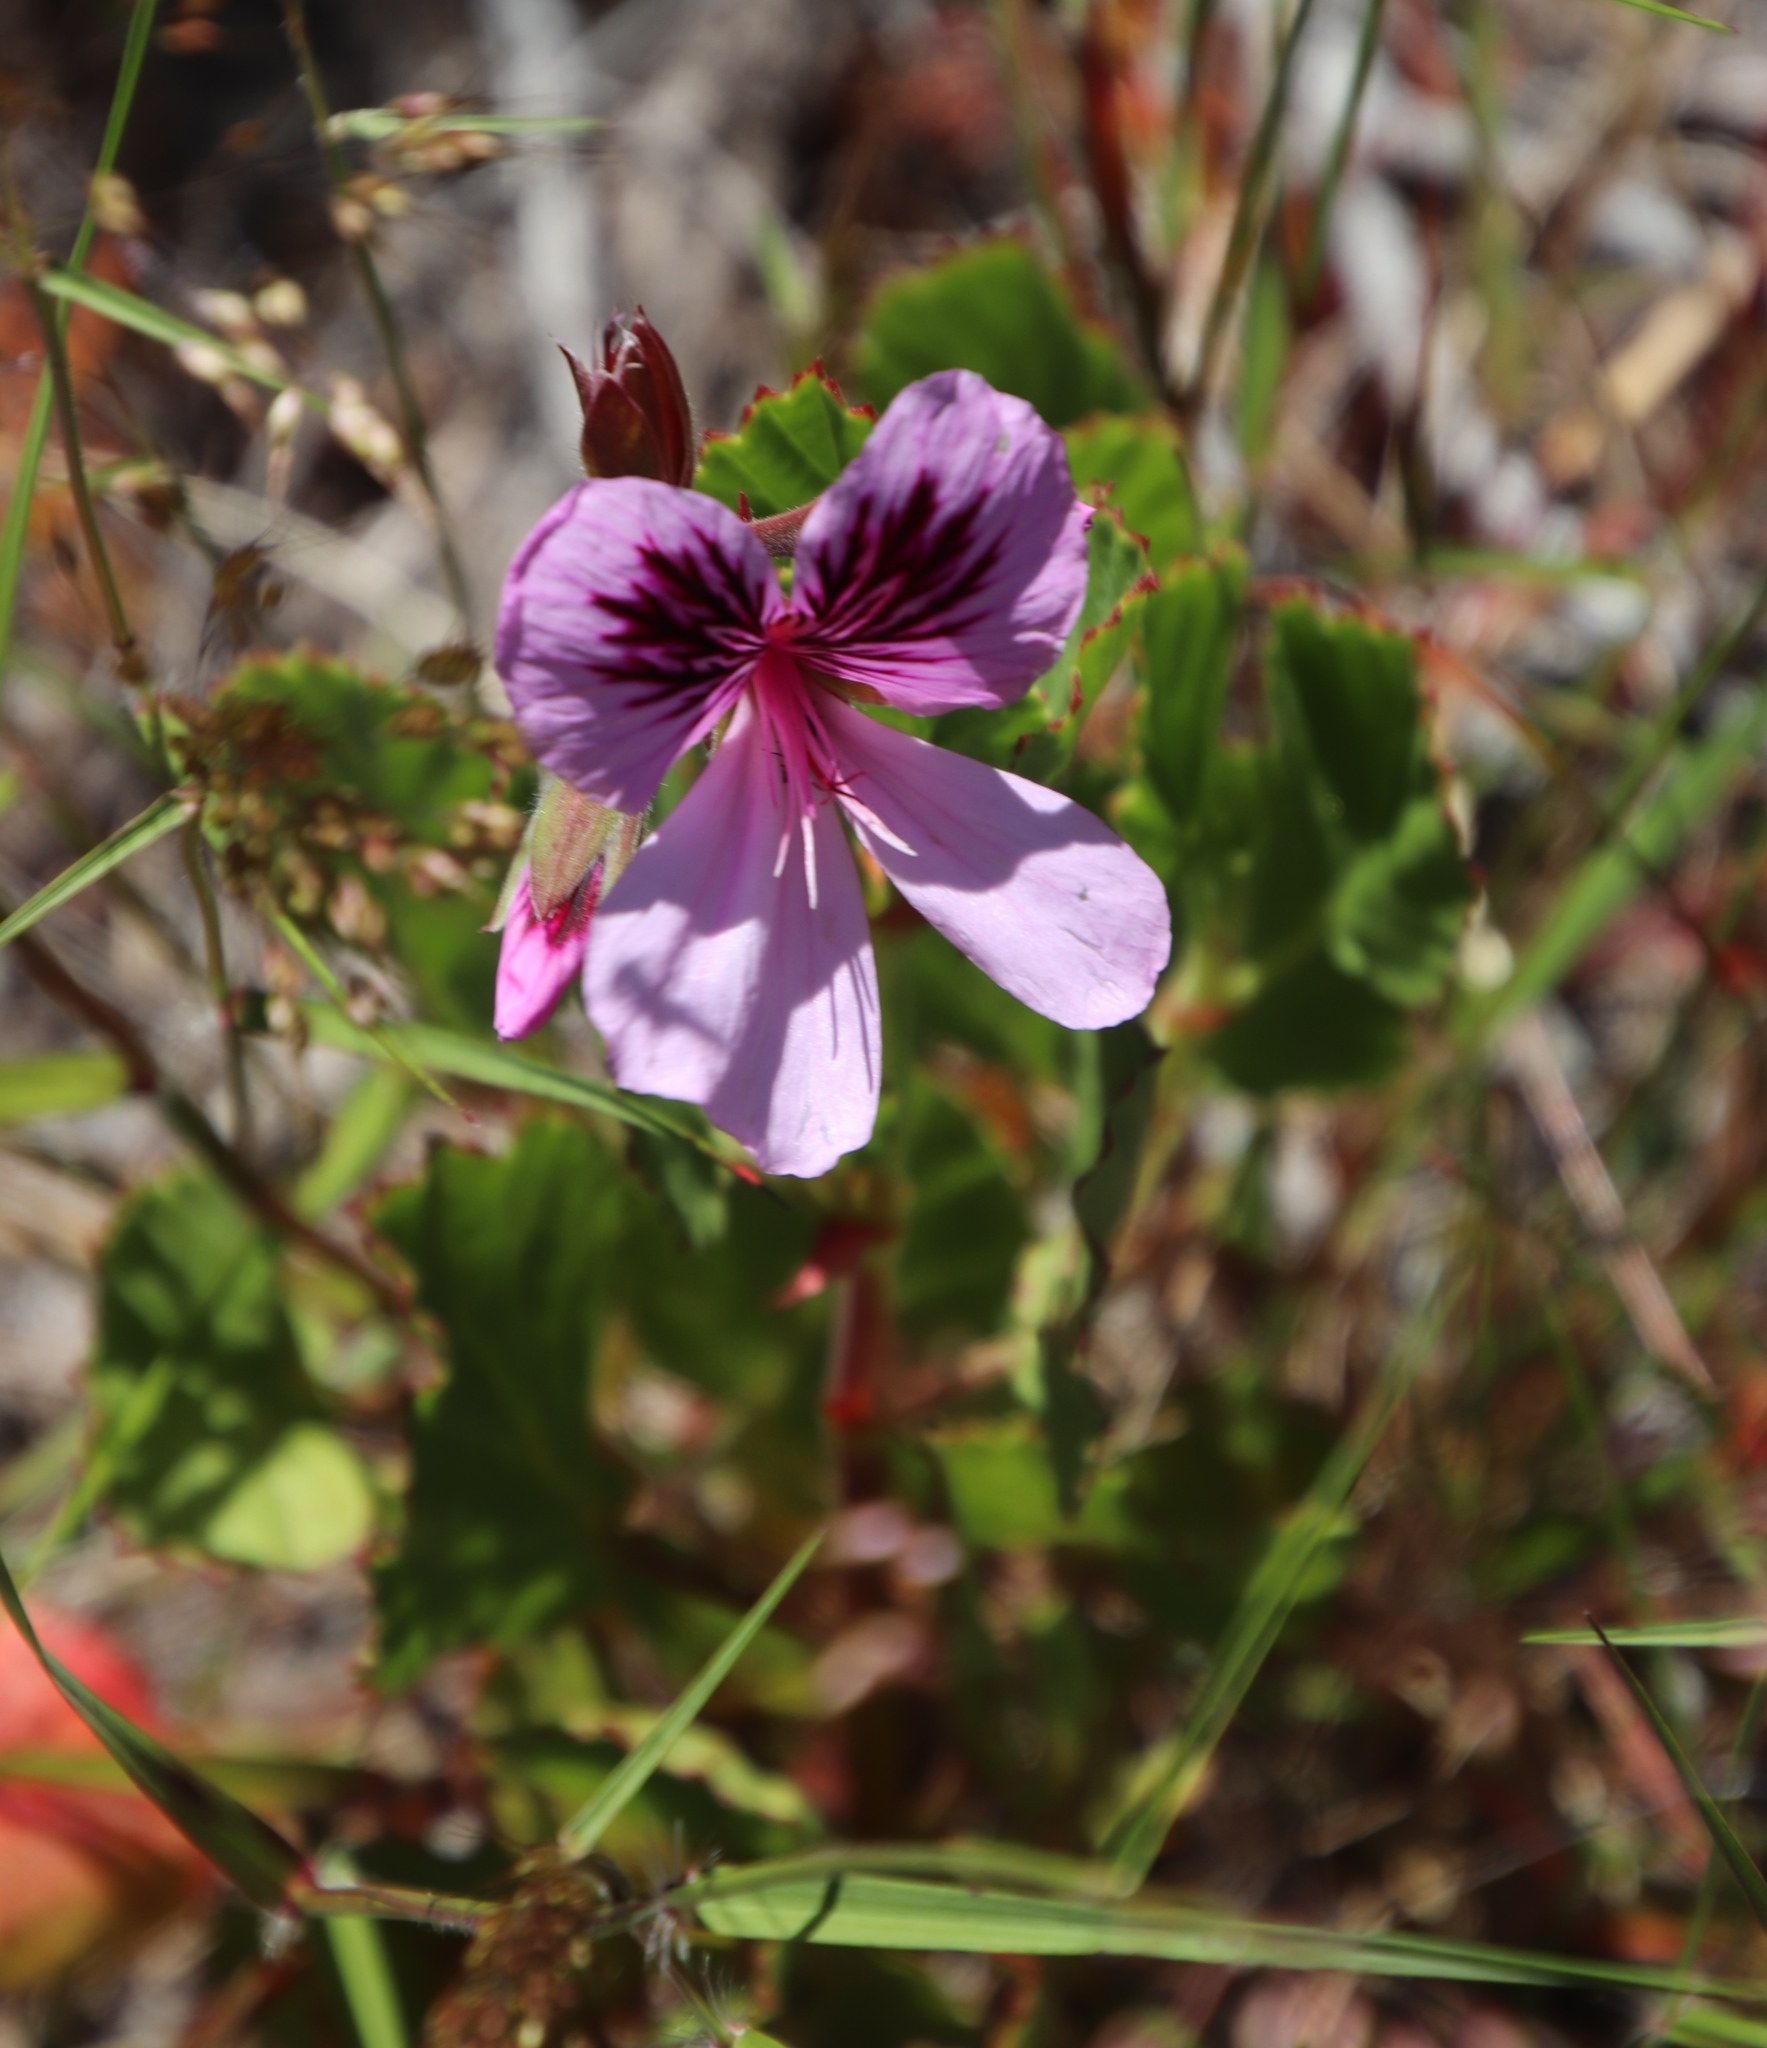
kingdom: Plantae
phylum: Tracheophyta
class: Magnoliopsida
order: Geraniales
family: Geraniaceae
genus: Pelargonium
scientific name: Pelargonium elegans
